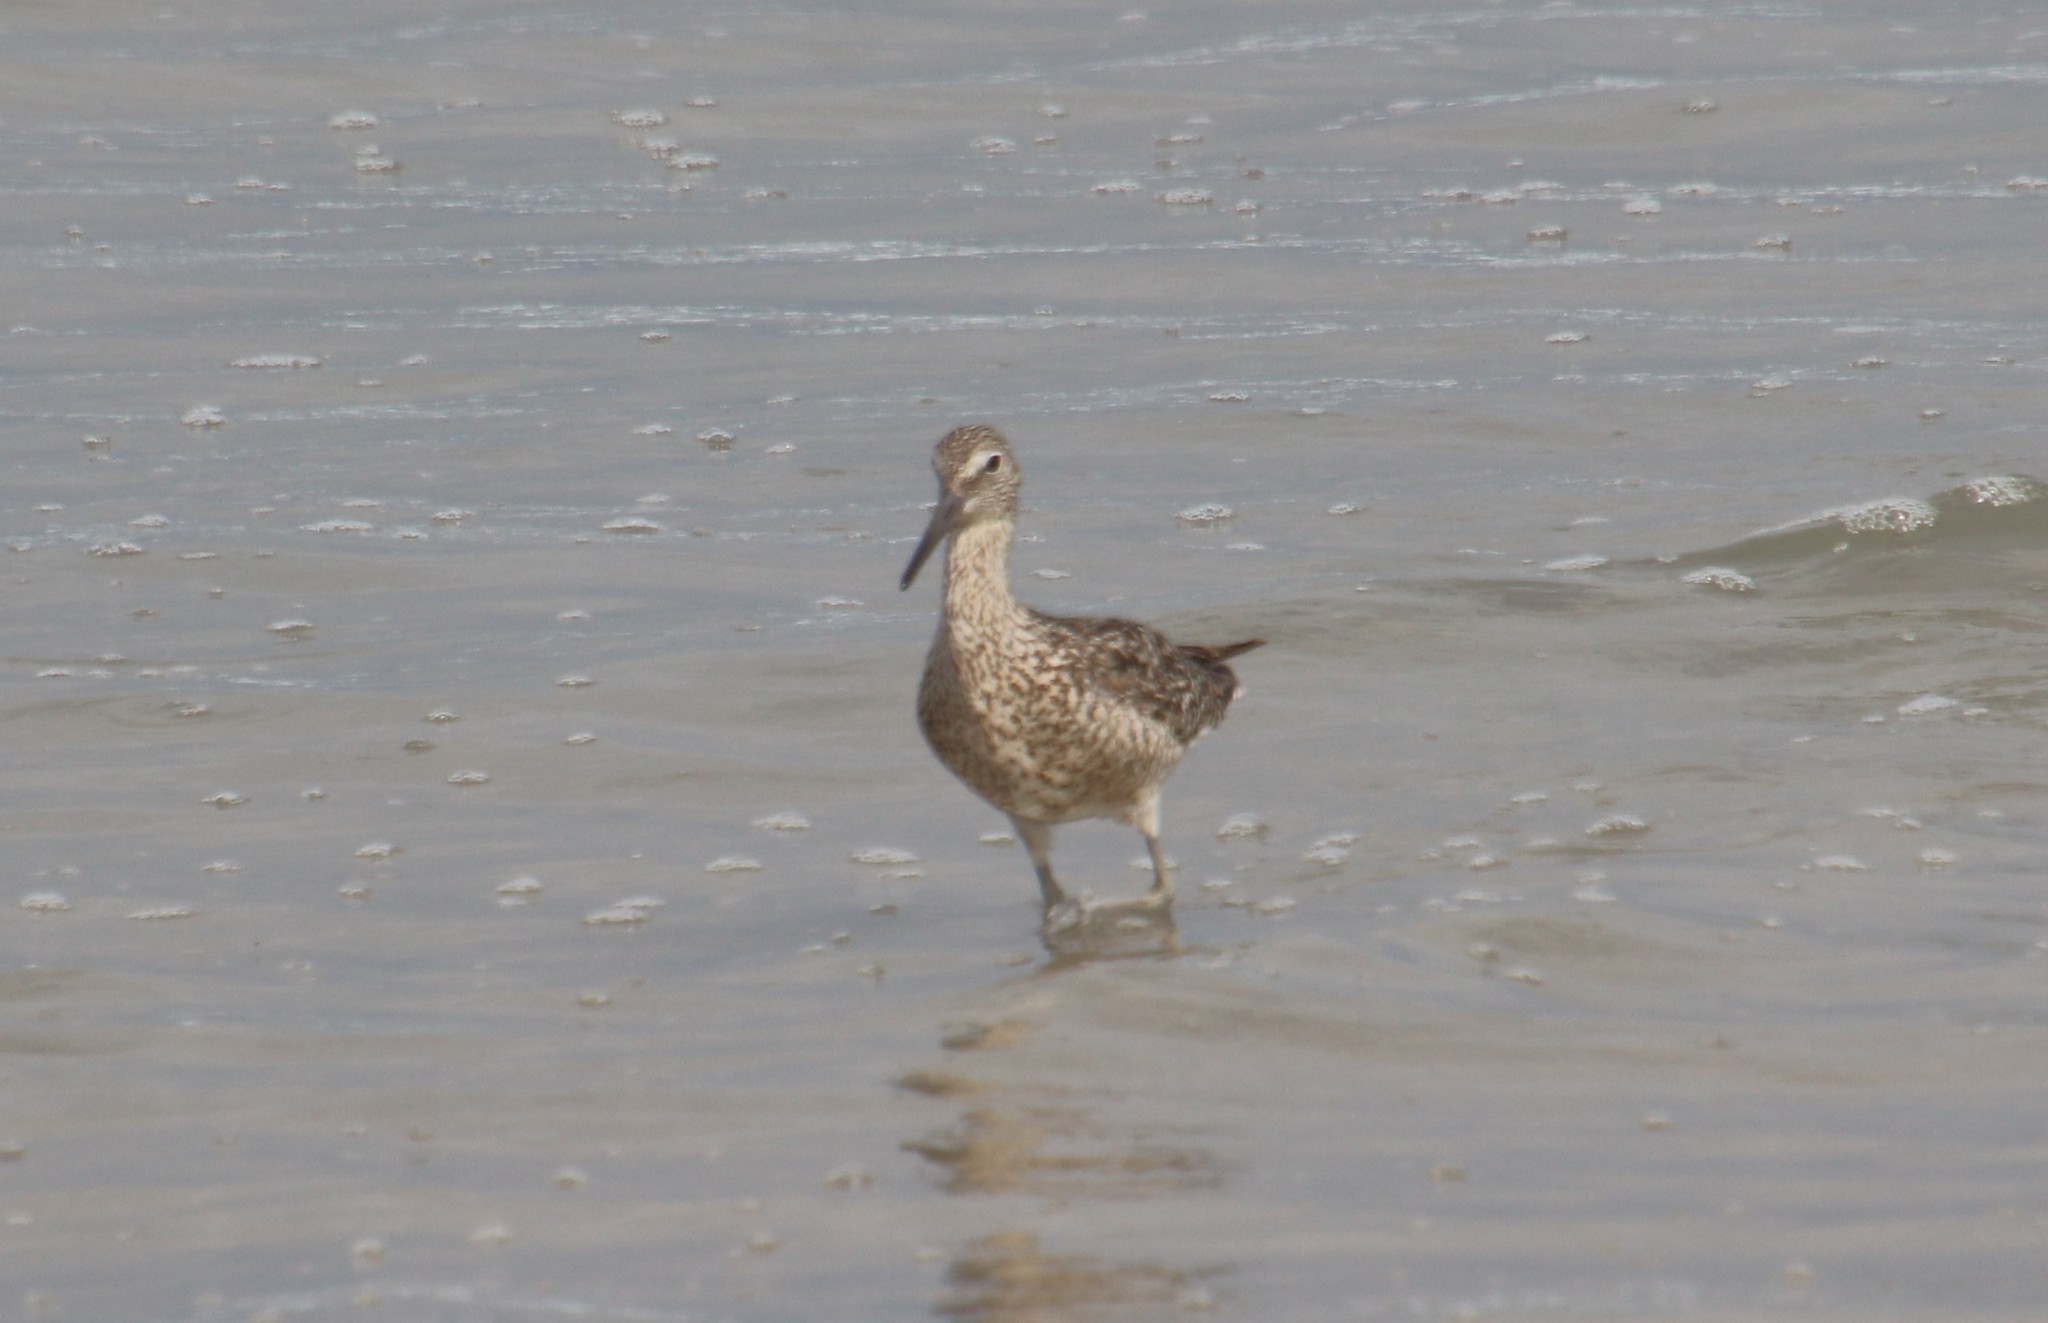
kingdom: Animalia
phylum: Chordata
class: Aves
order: Charadriiformes
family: Scolopacidae
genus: Tringa
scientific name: Tringa semipalmata
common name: Willet
